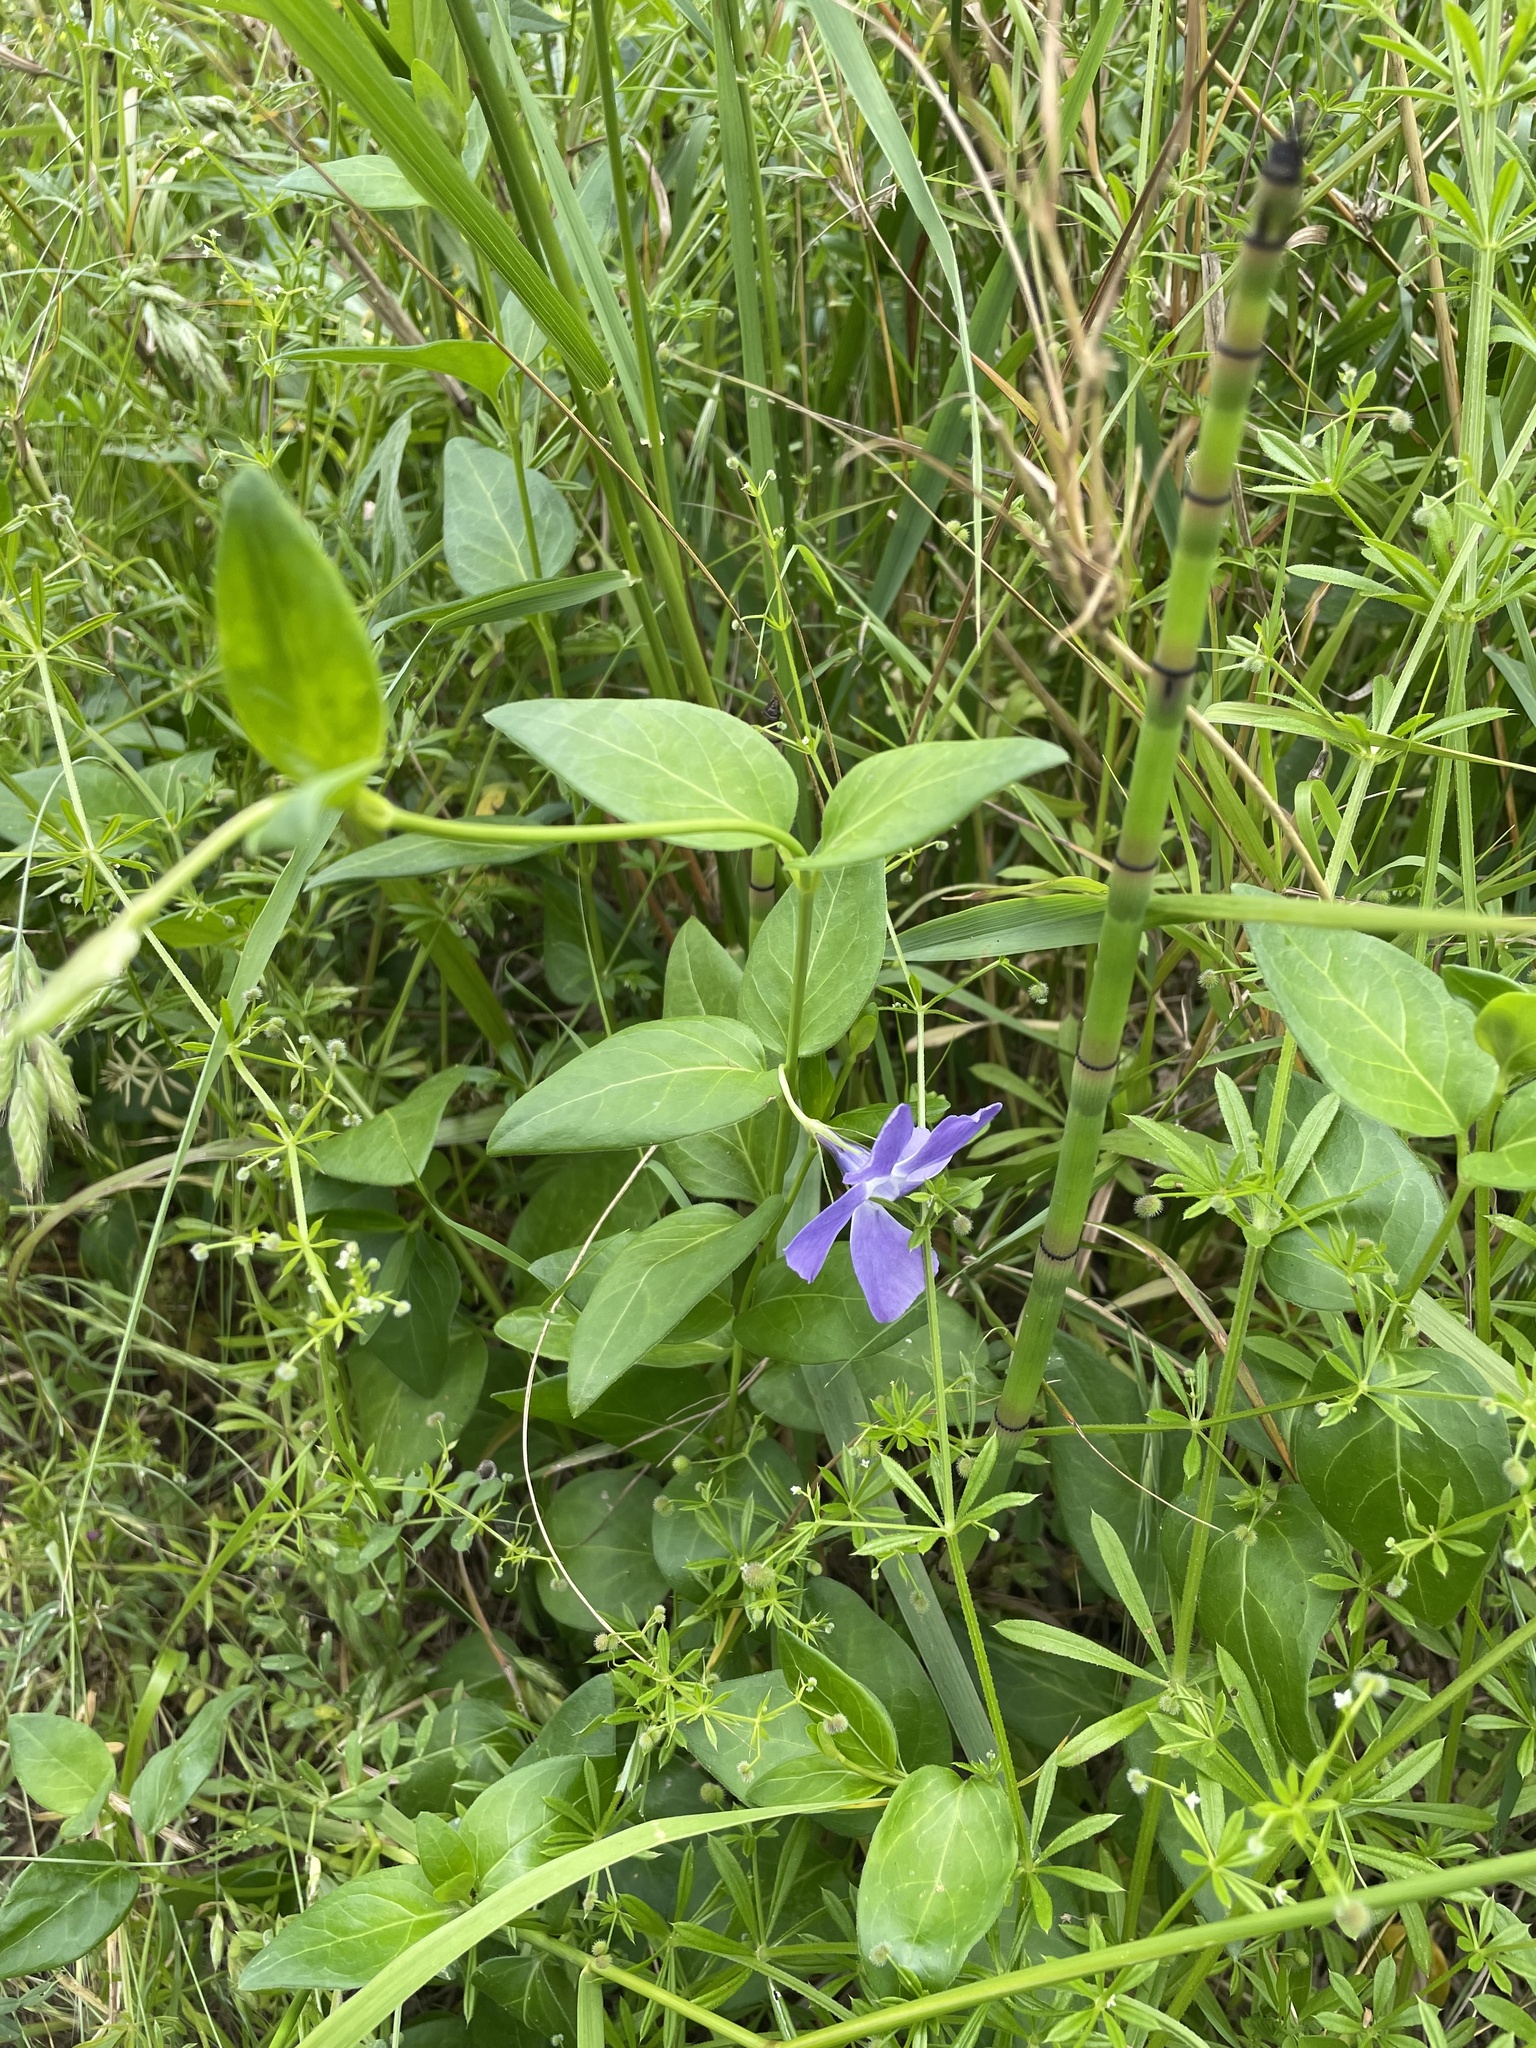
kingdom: Plantae
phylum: Tracheophyta
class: Magnoliopsida
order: Gentianales
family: Apocynaceae
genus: Vinca
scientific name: Vinca major
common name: Greater periwinkle
